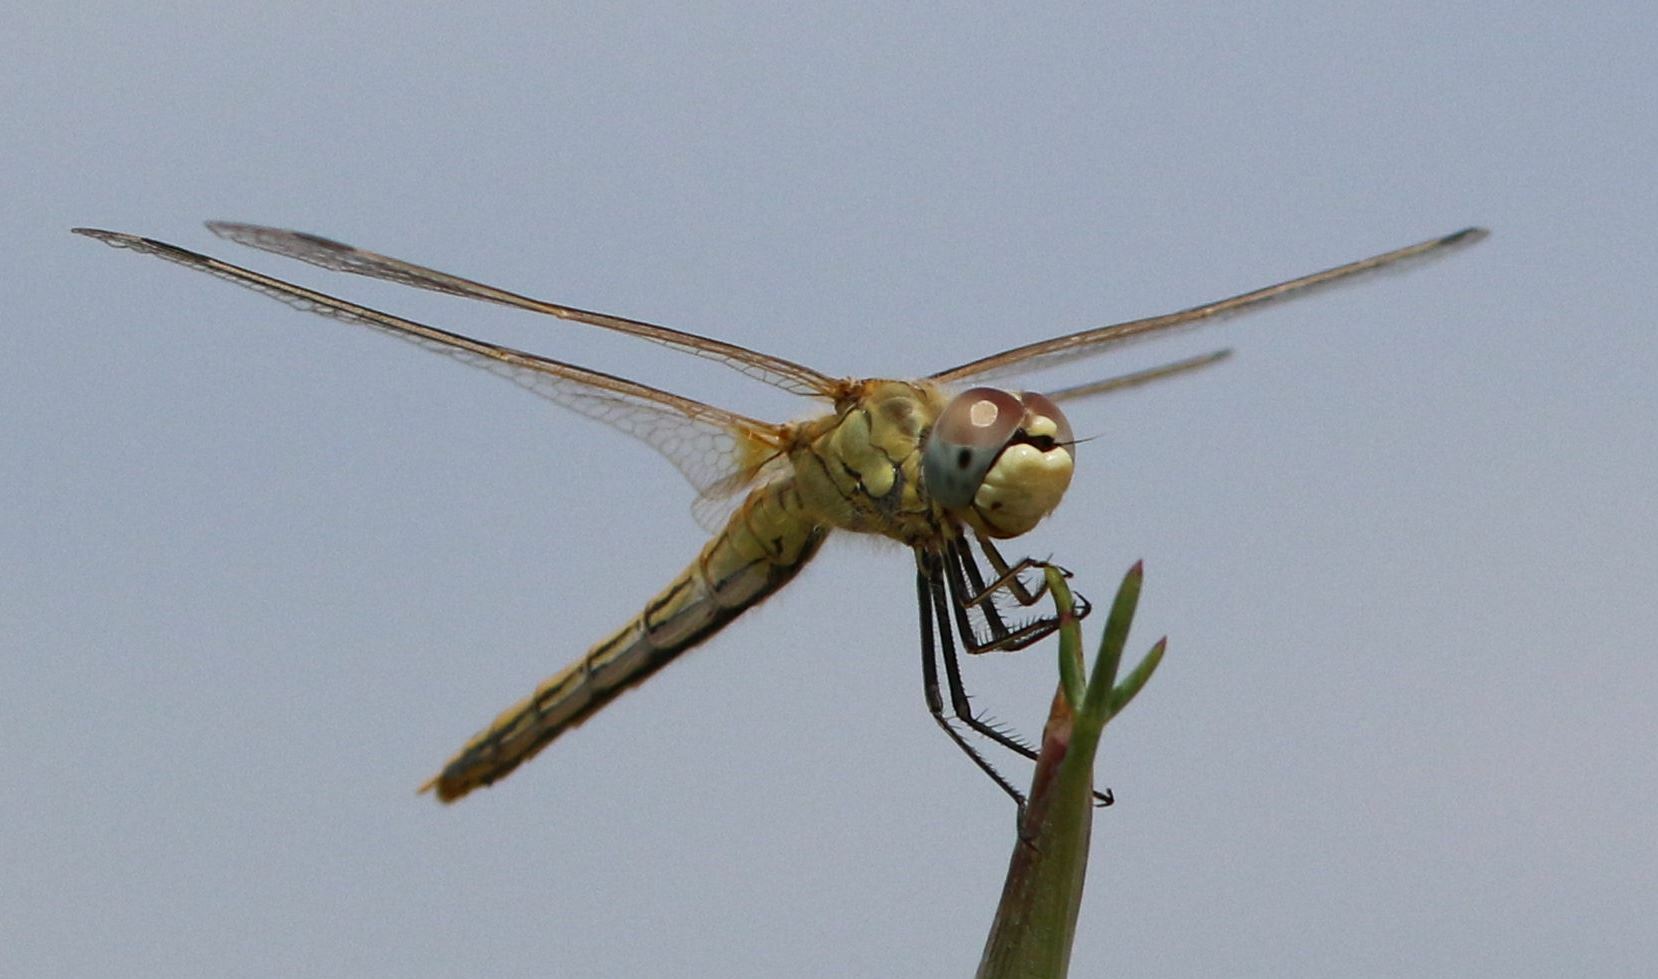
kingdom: Animalia
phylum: Arthropoda
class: Insecta
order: Odonata
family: Libellulidae
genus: Sympetrum
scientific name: Sympetrum fonscolombii
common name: Red-veined darter
